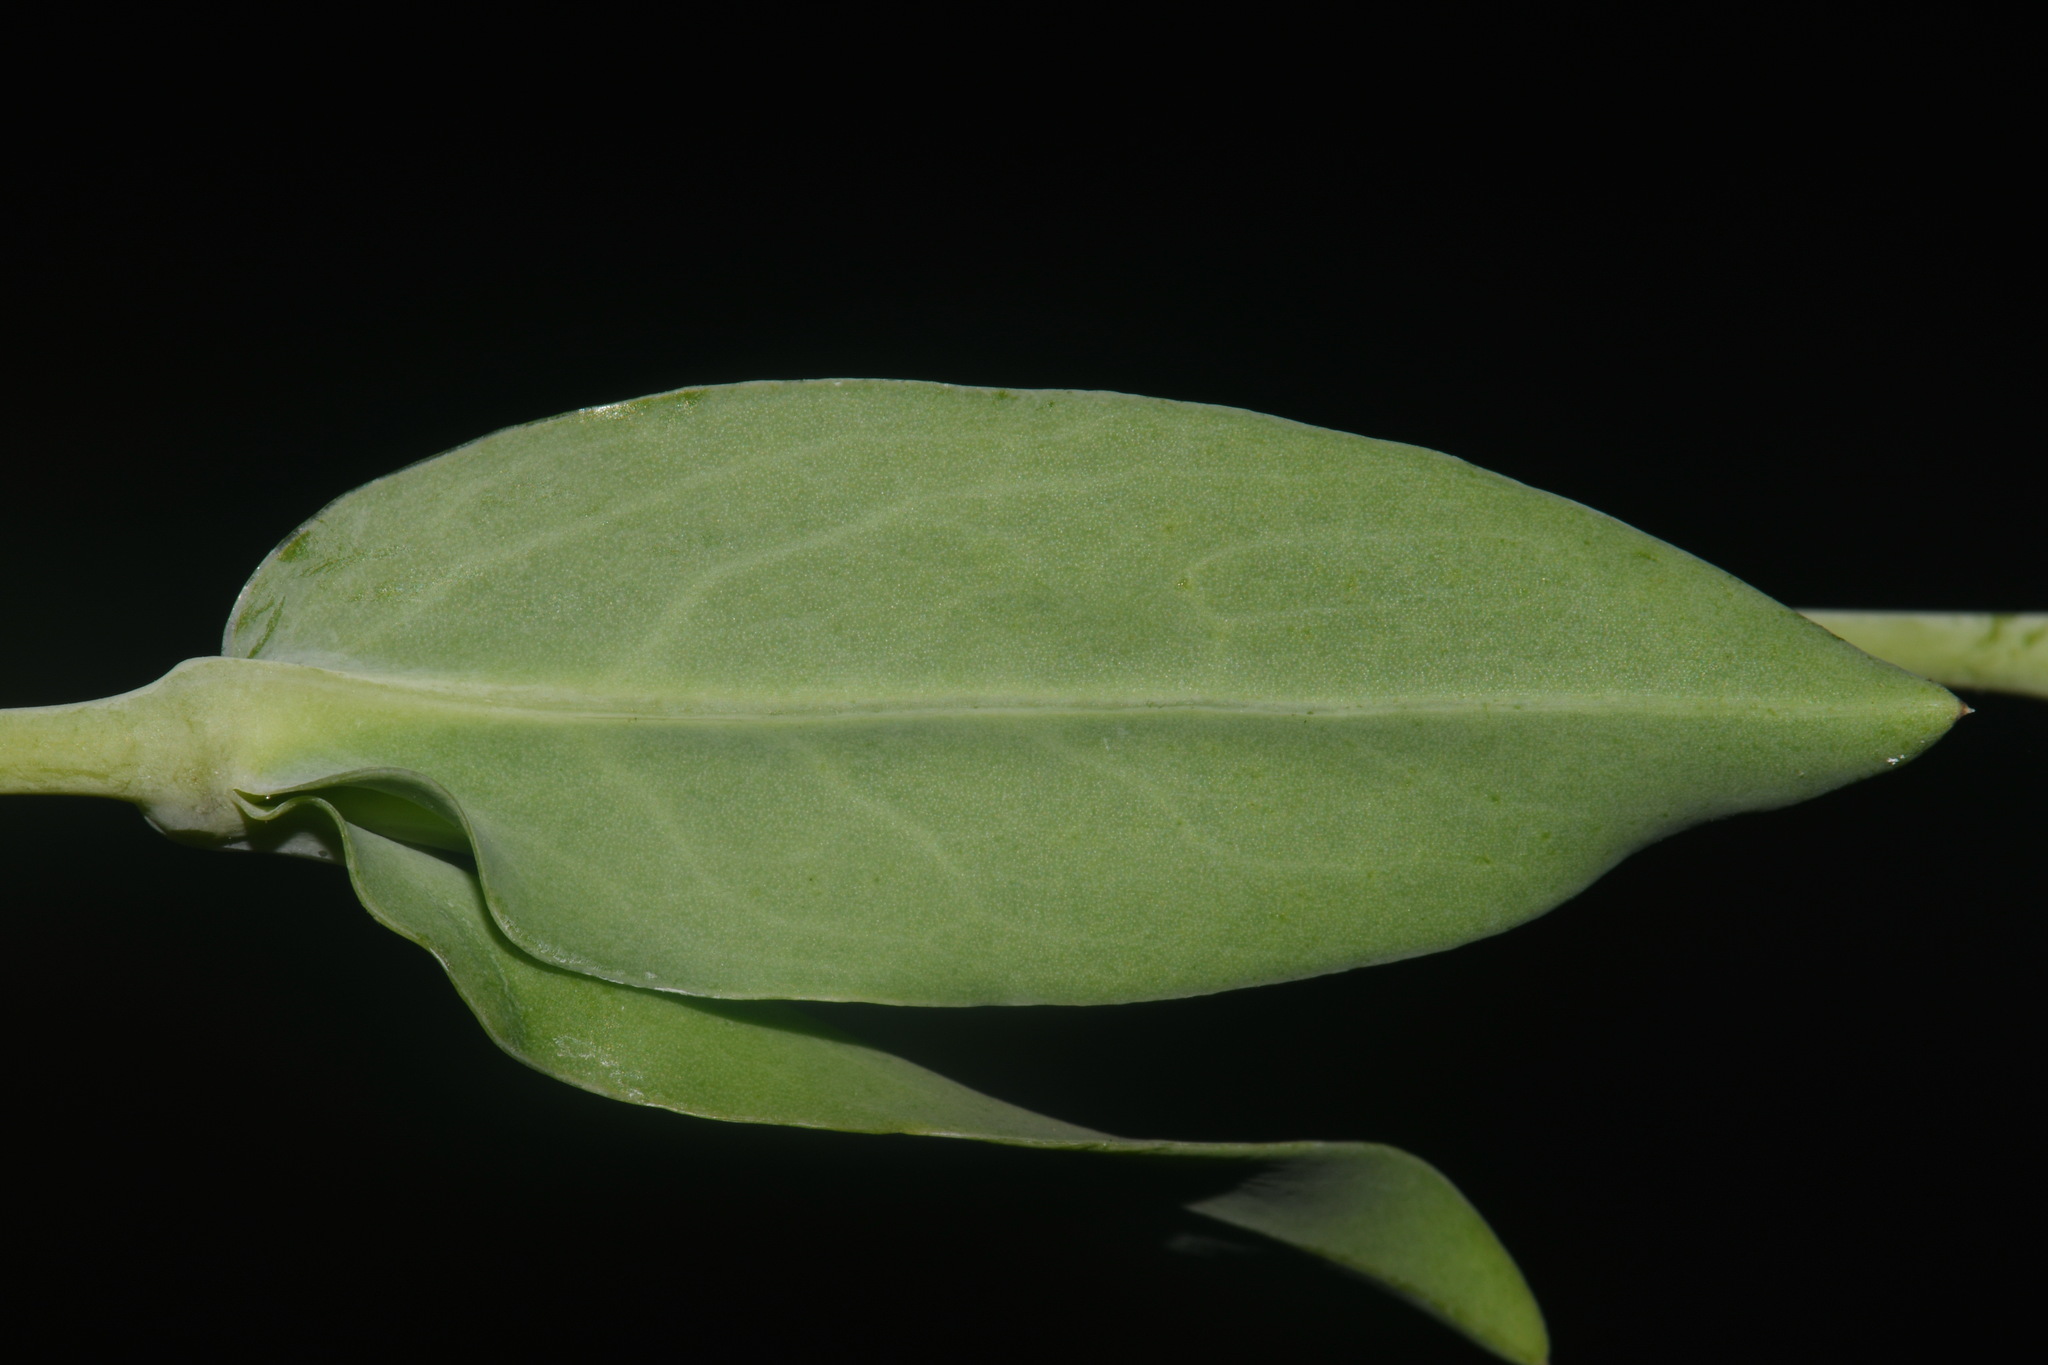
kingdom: Plantae
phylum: Tracheophyta
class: Magnoliopsida
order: Caryophyllales
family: Caryophyllaceae
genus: Silene
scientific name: Silene csereii
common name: Balkan catchfly
